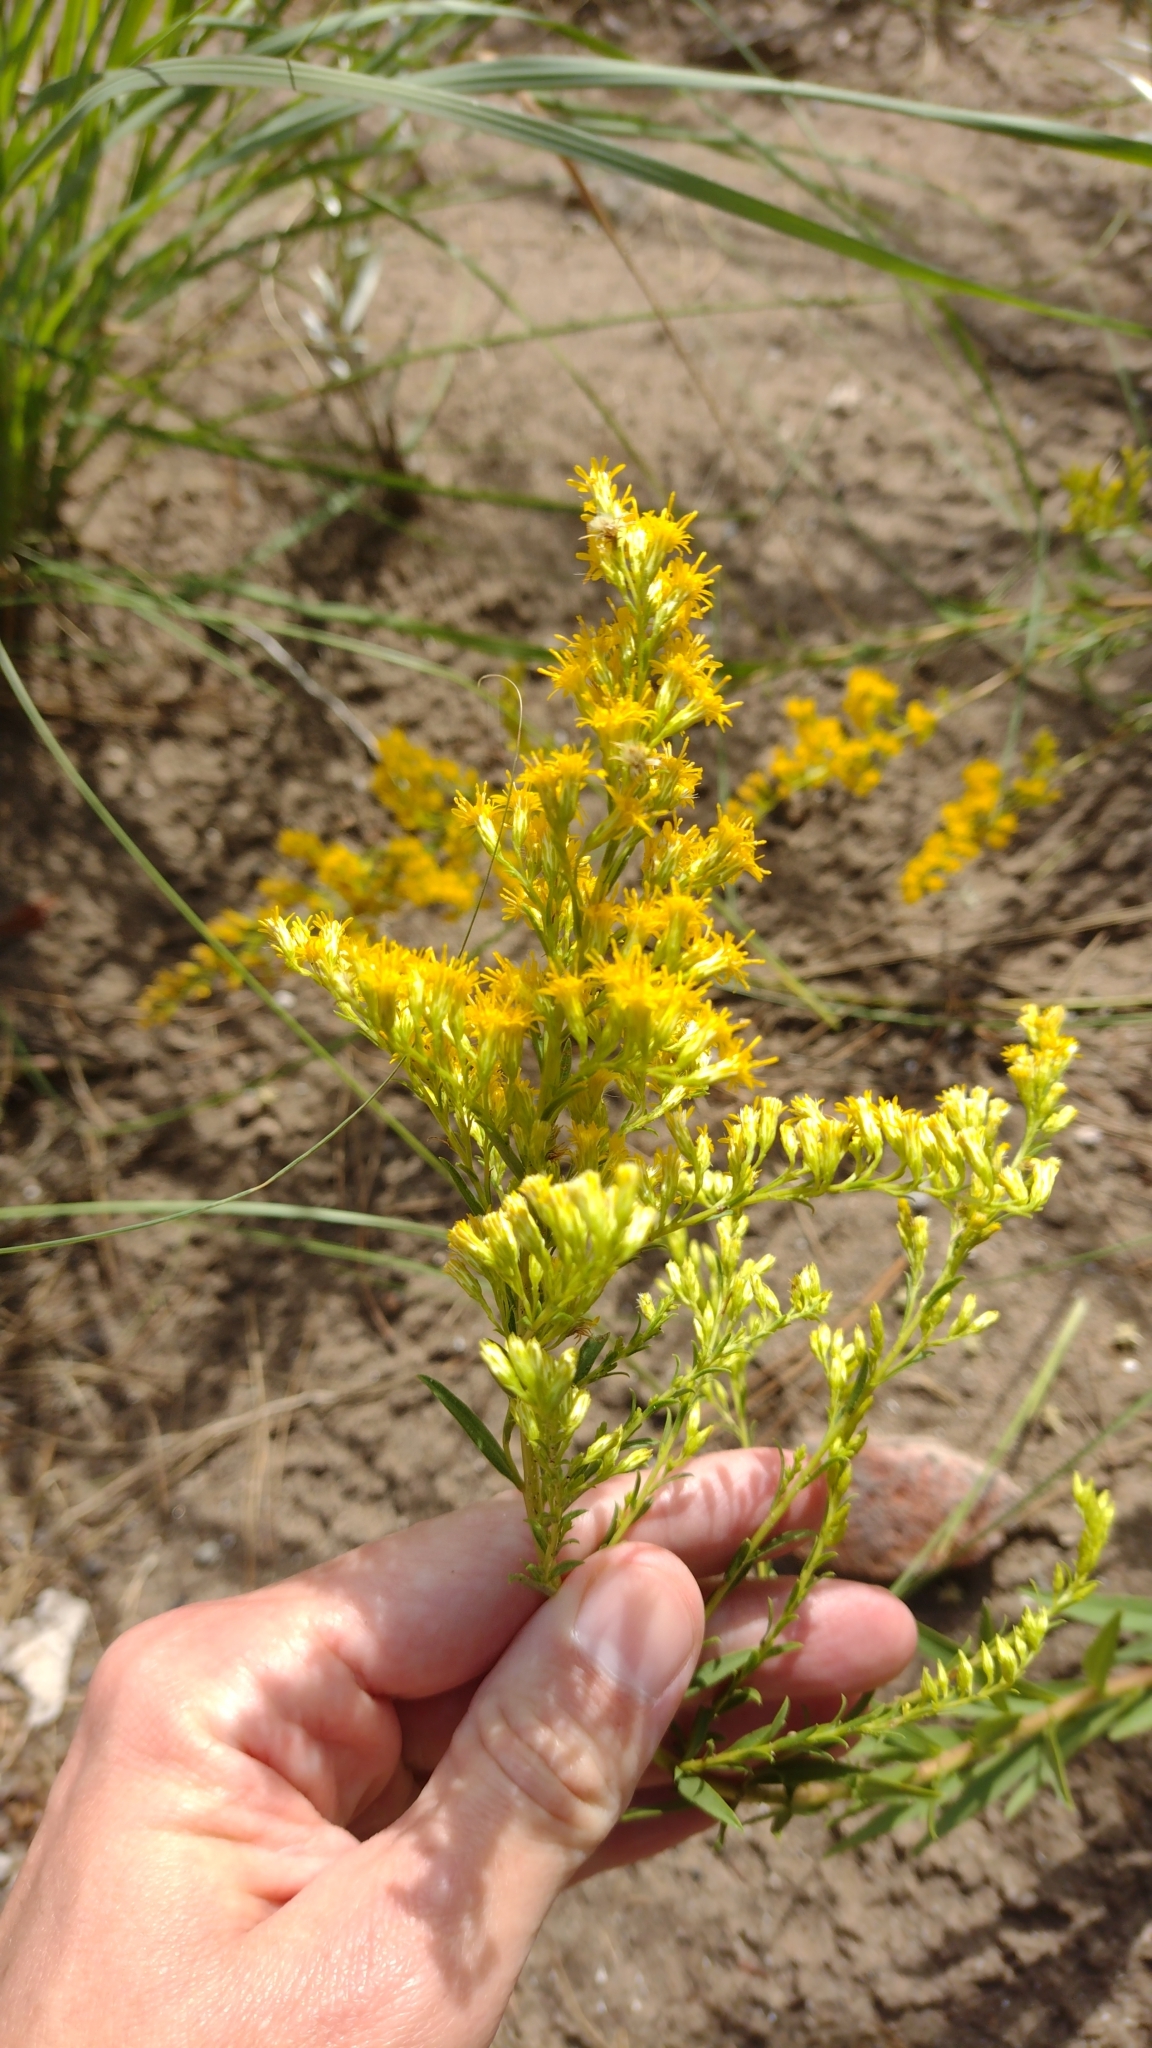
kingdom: Plantae
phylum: Tracheophyta
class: Magnoliopsida
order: Asterales
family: Asteraceae
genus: Solidago
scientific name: Solidago chilensis
